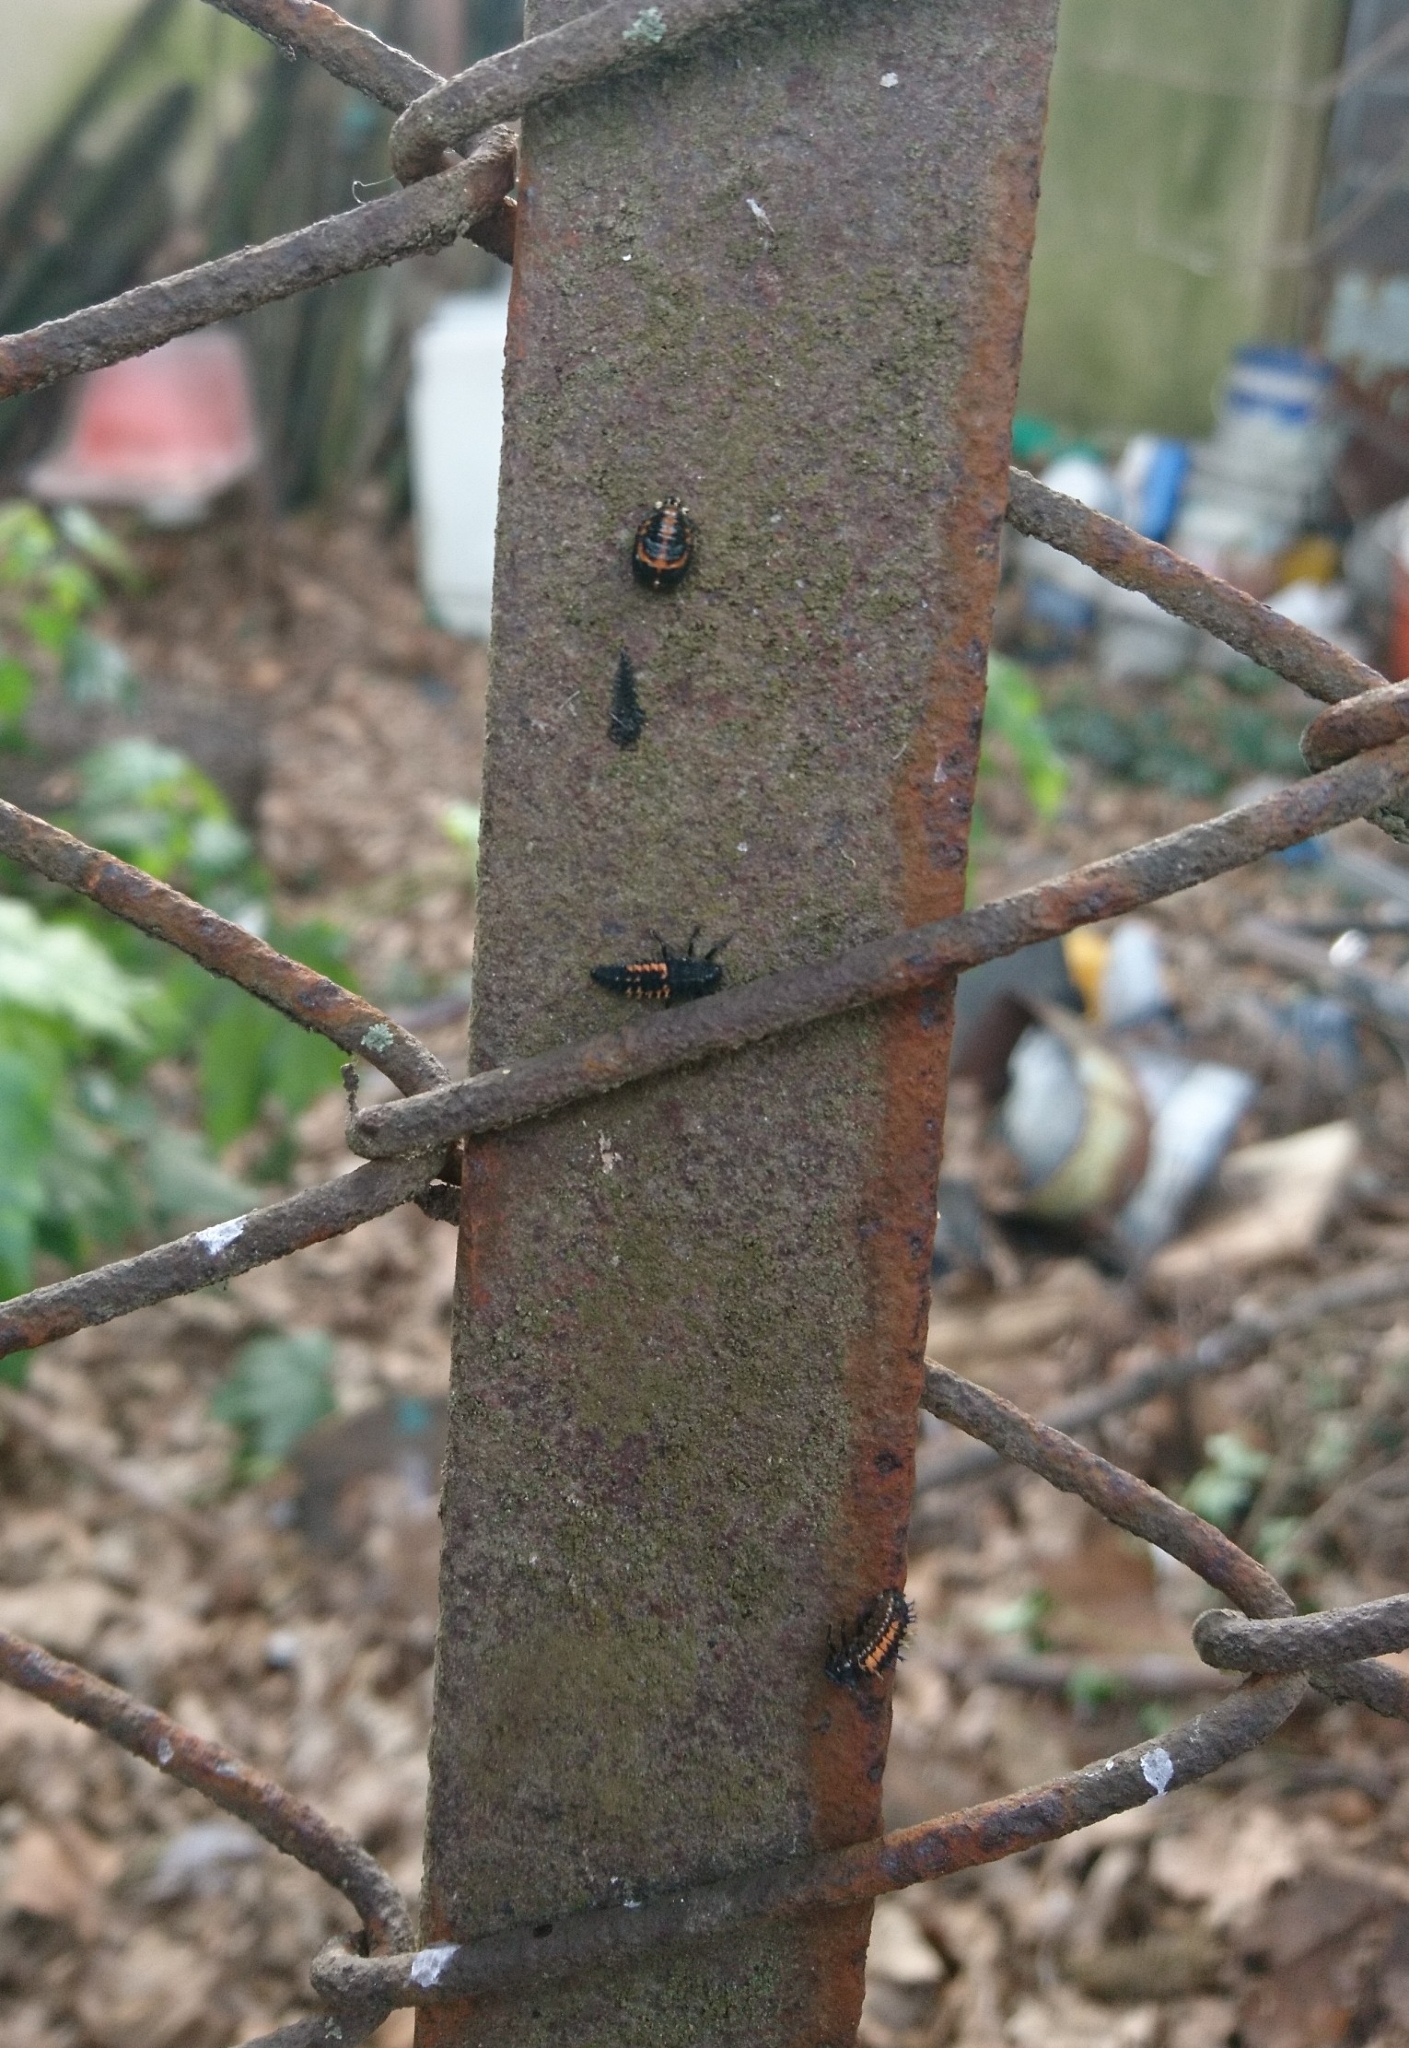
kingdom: Animalia
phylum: Arthropoda
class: Insecta
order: Coleoptera
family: Coccinellidae
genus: Harmonia
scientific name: Harmonia axyridis
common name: Harlequin ladybird
